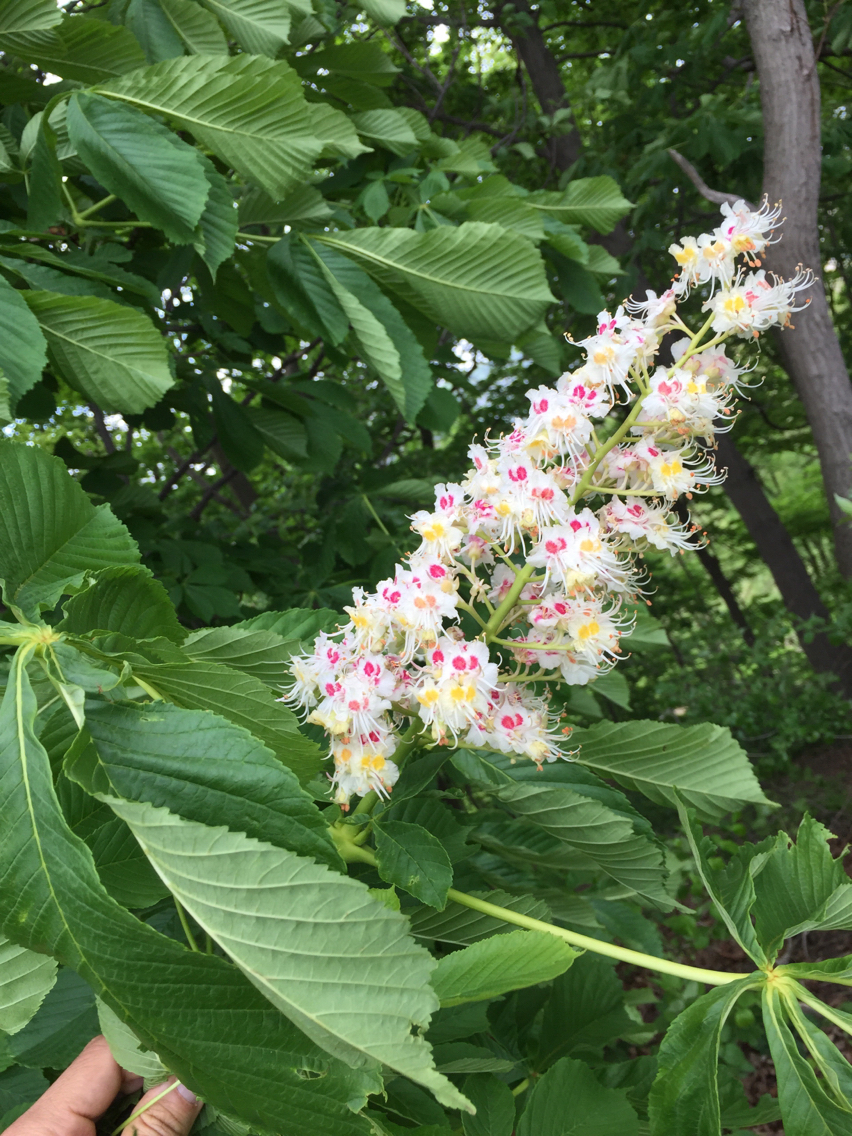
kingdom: Plantae
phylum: Tracheophyta
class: Magnoliopsida
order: Sapindales
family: Sapindaceae
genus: Aesculus
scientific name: Aesculus hippocastanum
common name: Horse-chestnut
